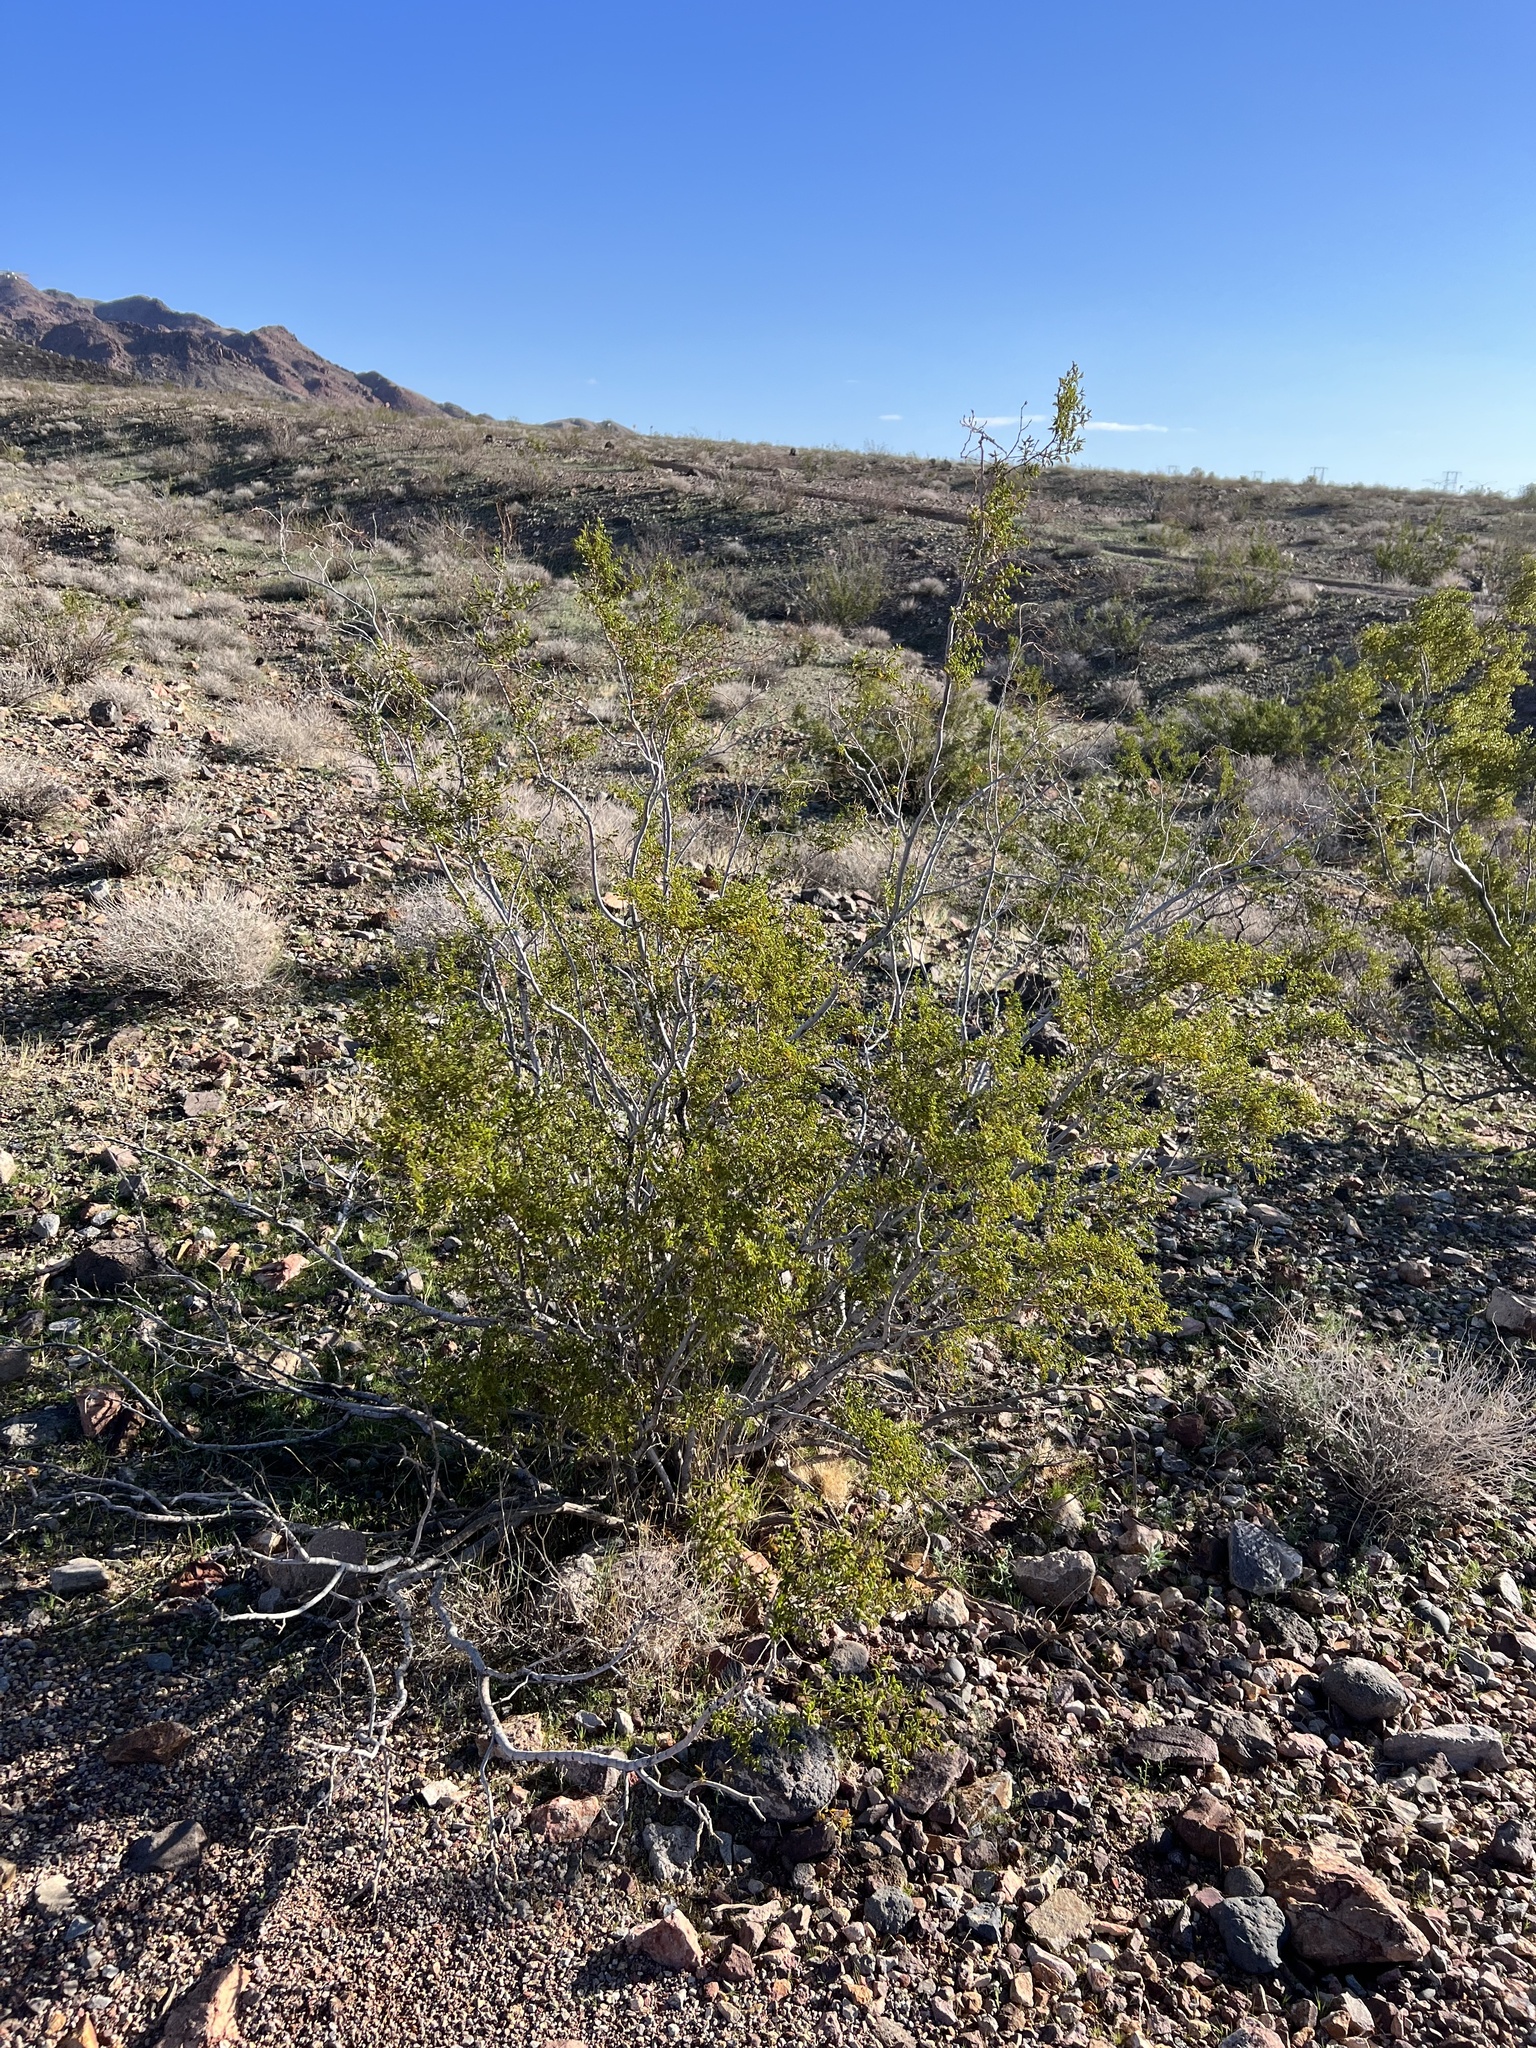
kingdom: Plantae
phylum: Tracheophyta
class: Magnoliopsida
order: Zygophyllales
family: Zygophyllaceae
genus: Larrea
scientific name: Larrea tridentata
